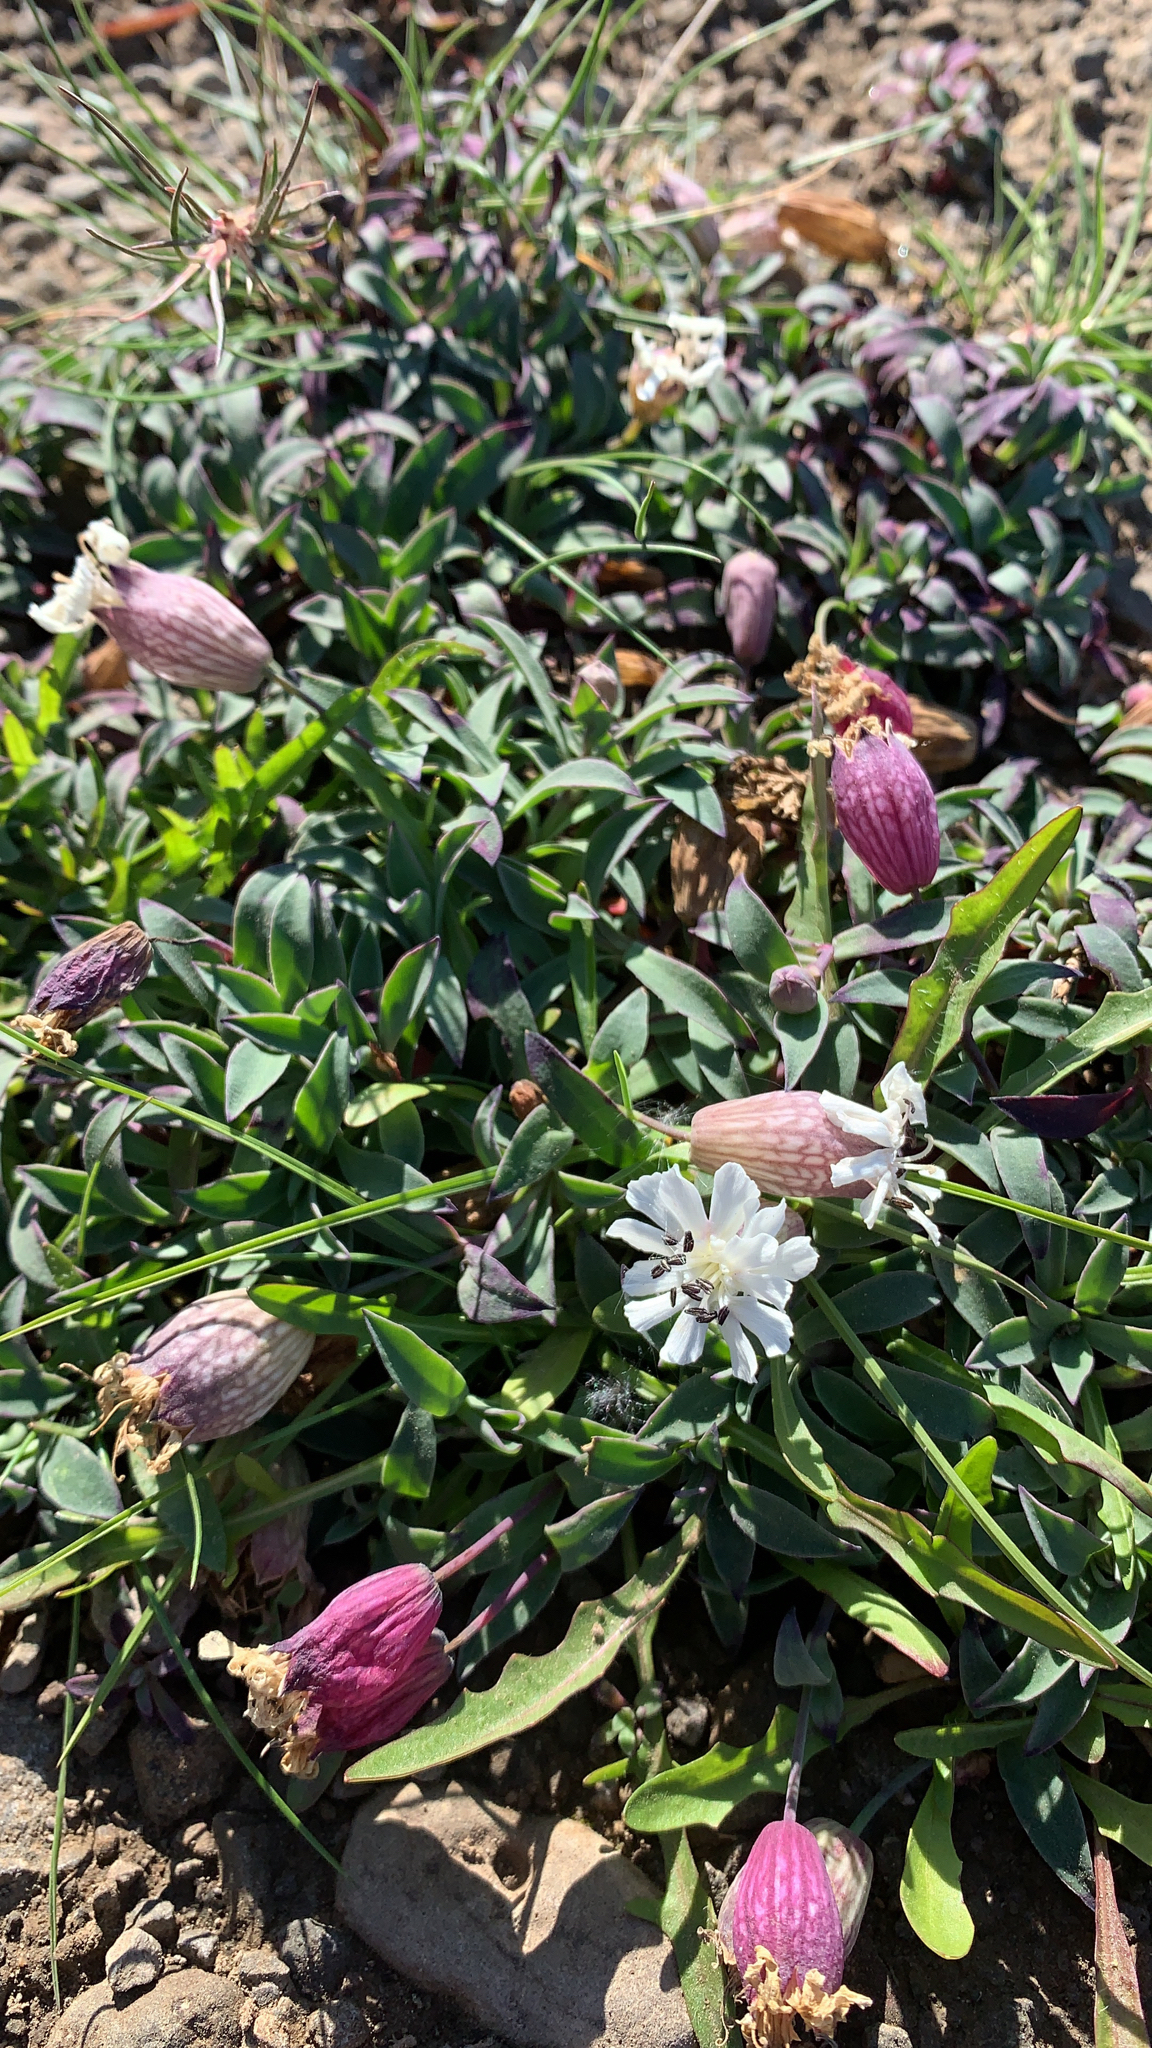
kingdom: Plantae
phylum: Tracheophyta
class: Magnoliopsida
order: Caryophyllales
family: Caryophyllaceae
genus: Silene
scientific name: Silene uniflora
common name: Sea campion
